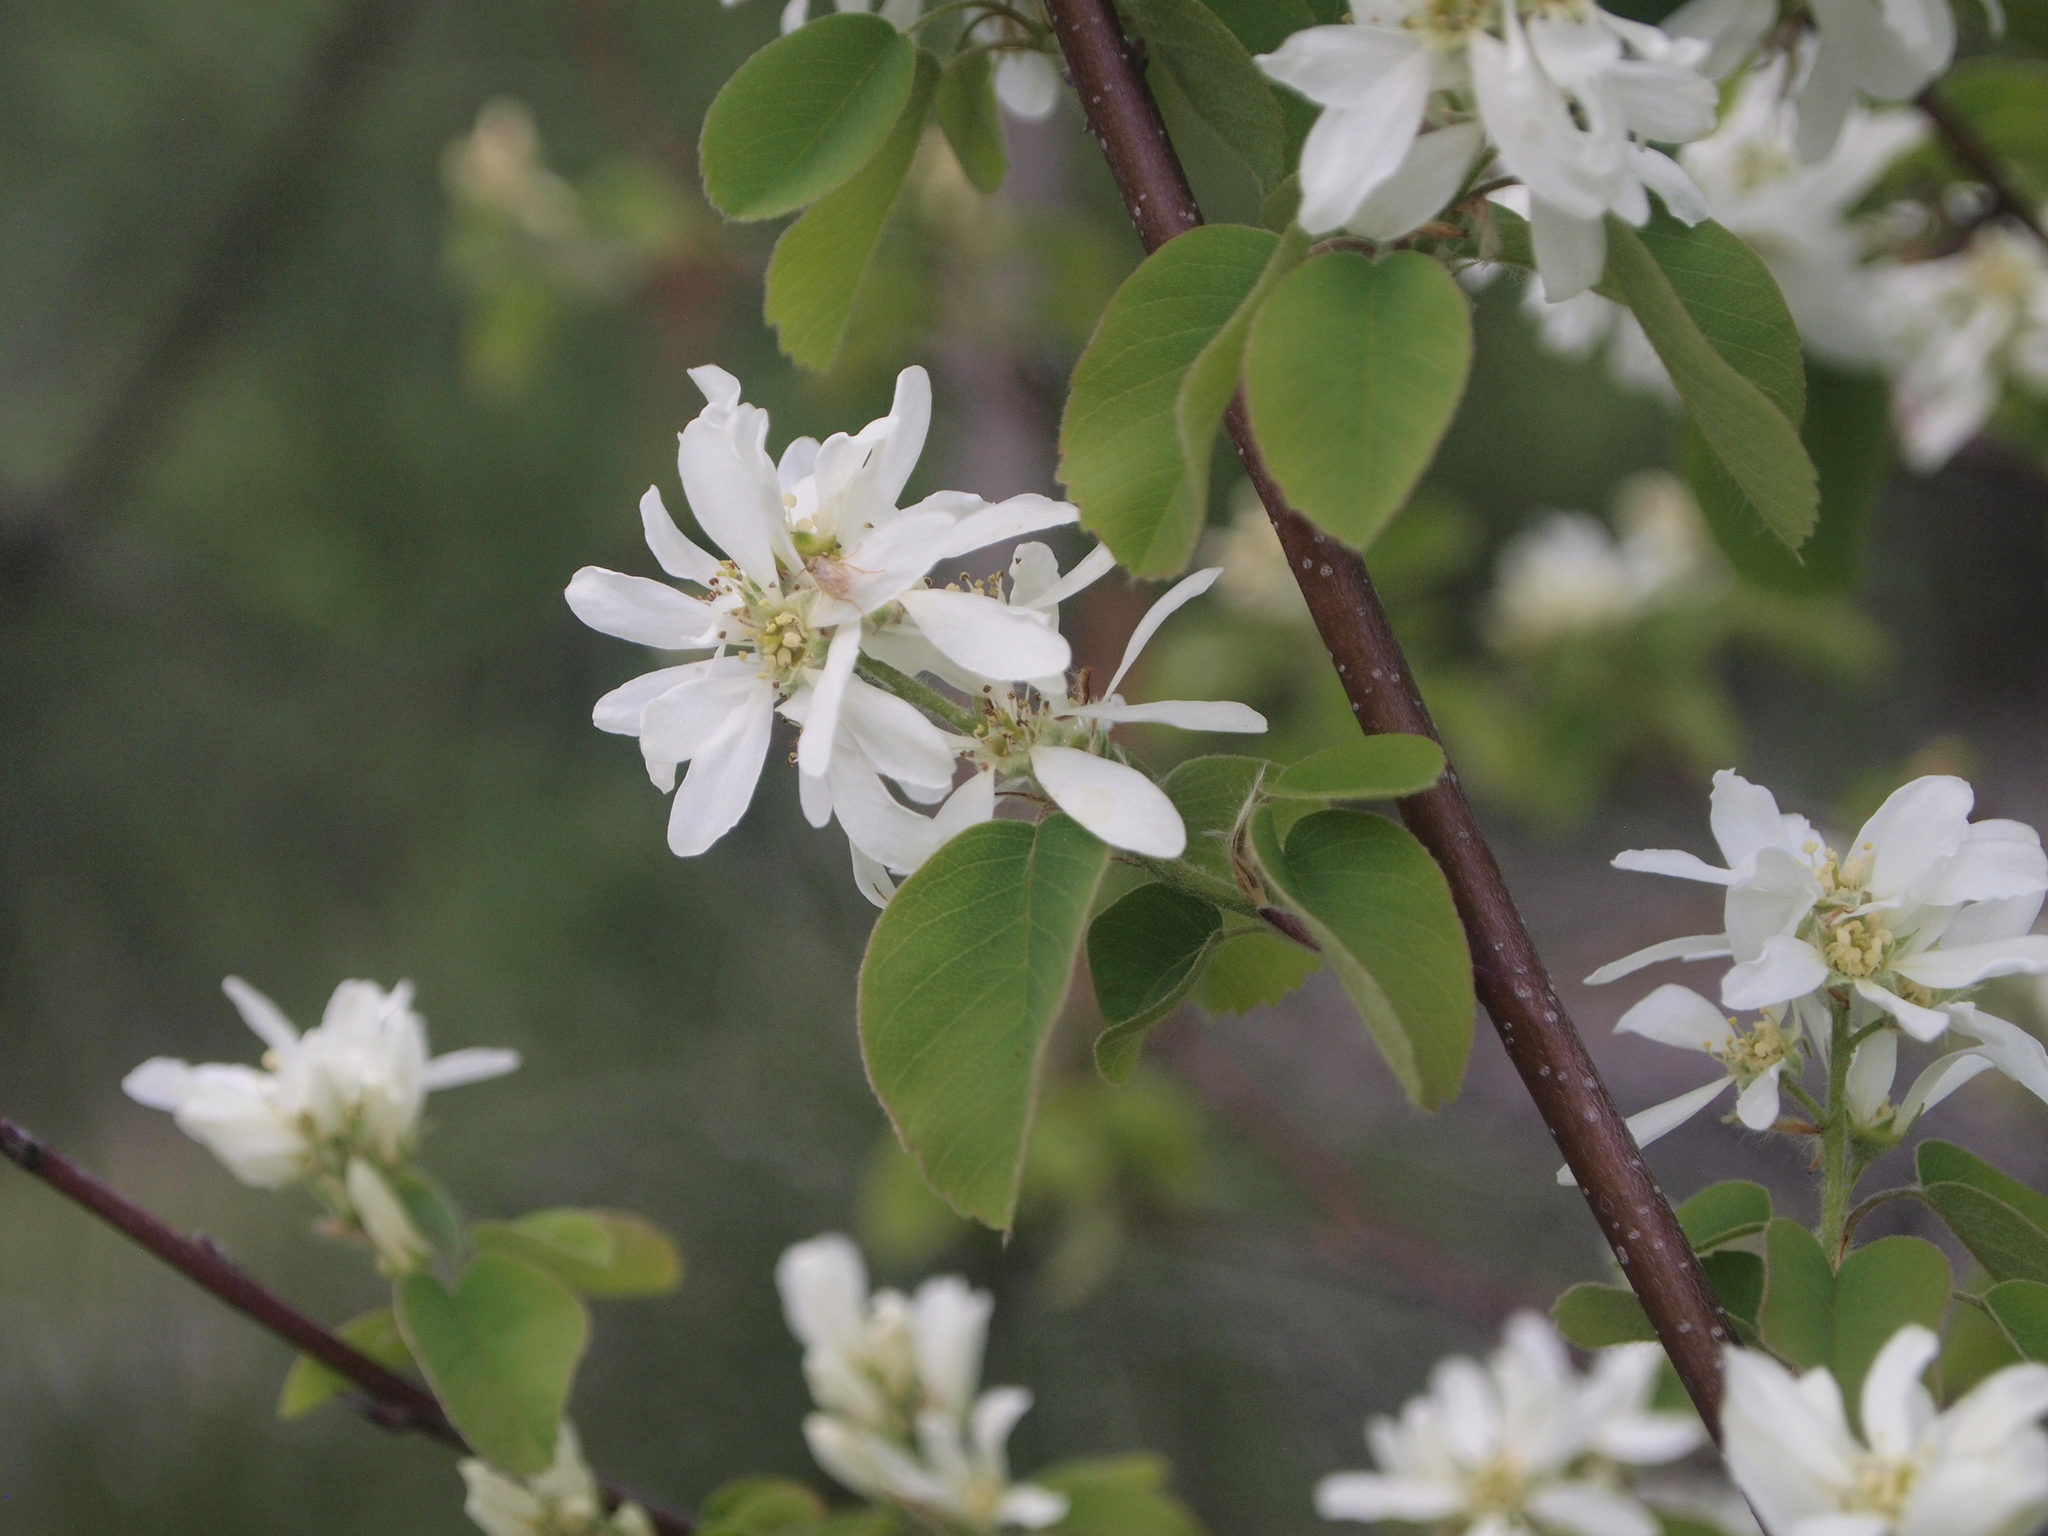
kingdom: Plantae
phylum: Tracheophyta
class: Magnoliopsida
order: Rosales
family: Rosaceae
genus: Amelanchier
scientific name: Amelanchier alnifolia
